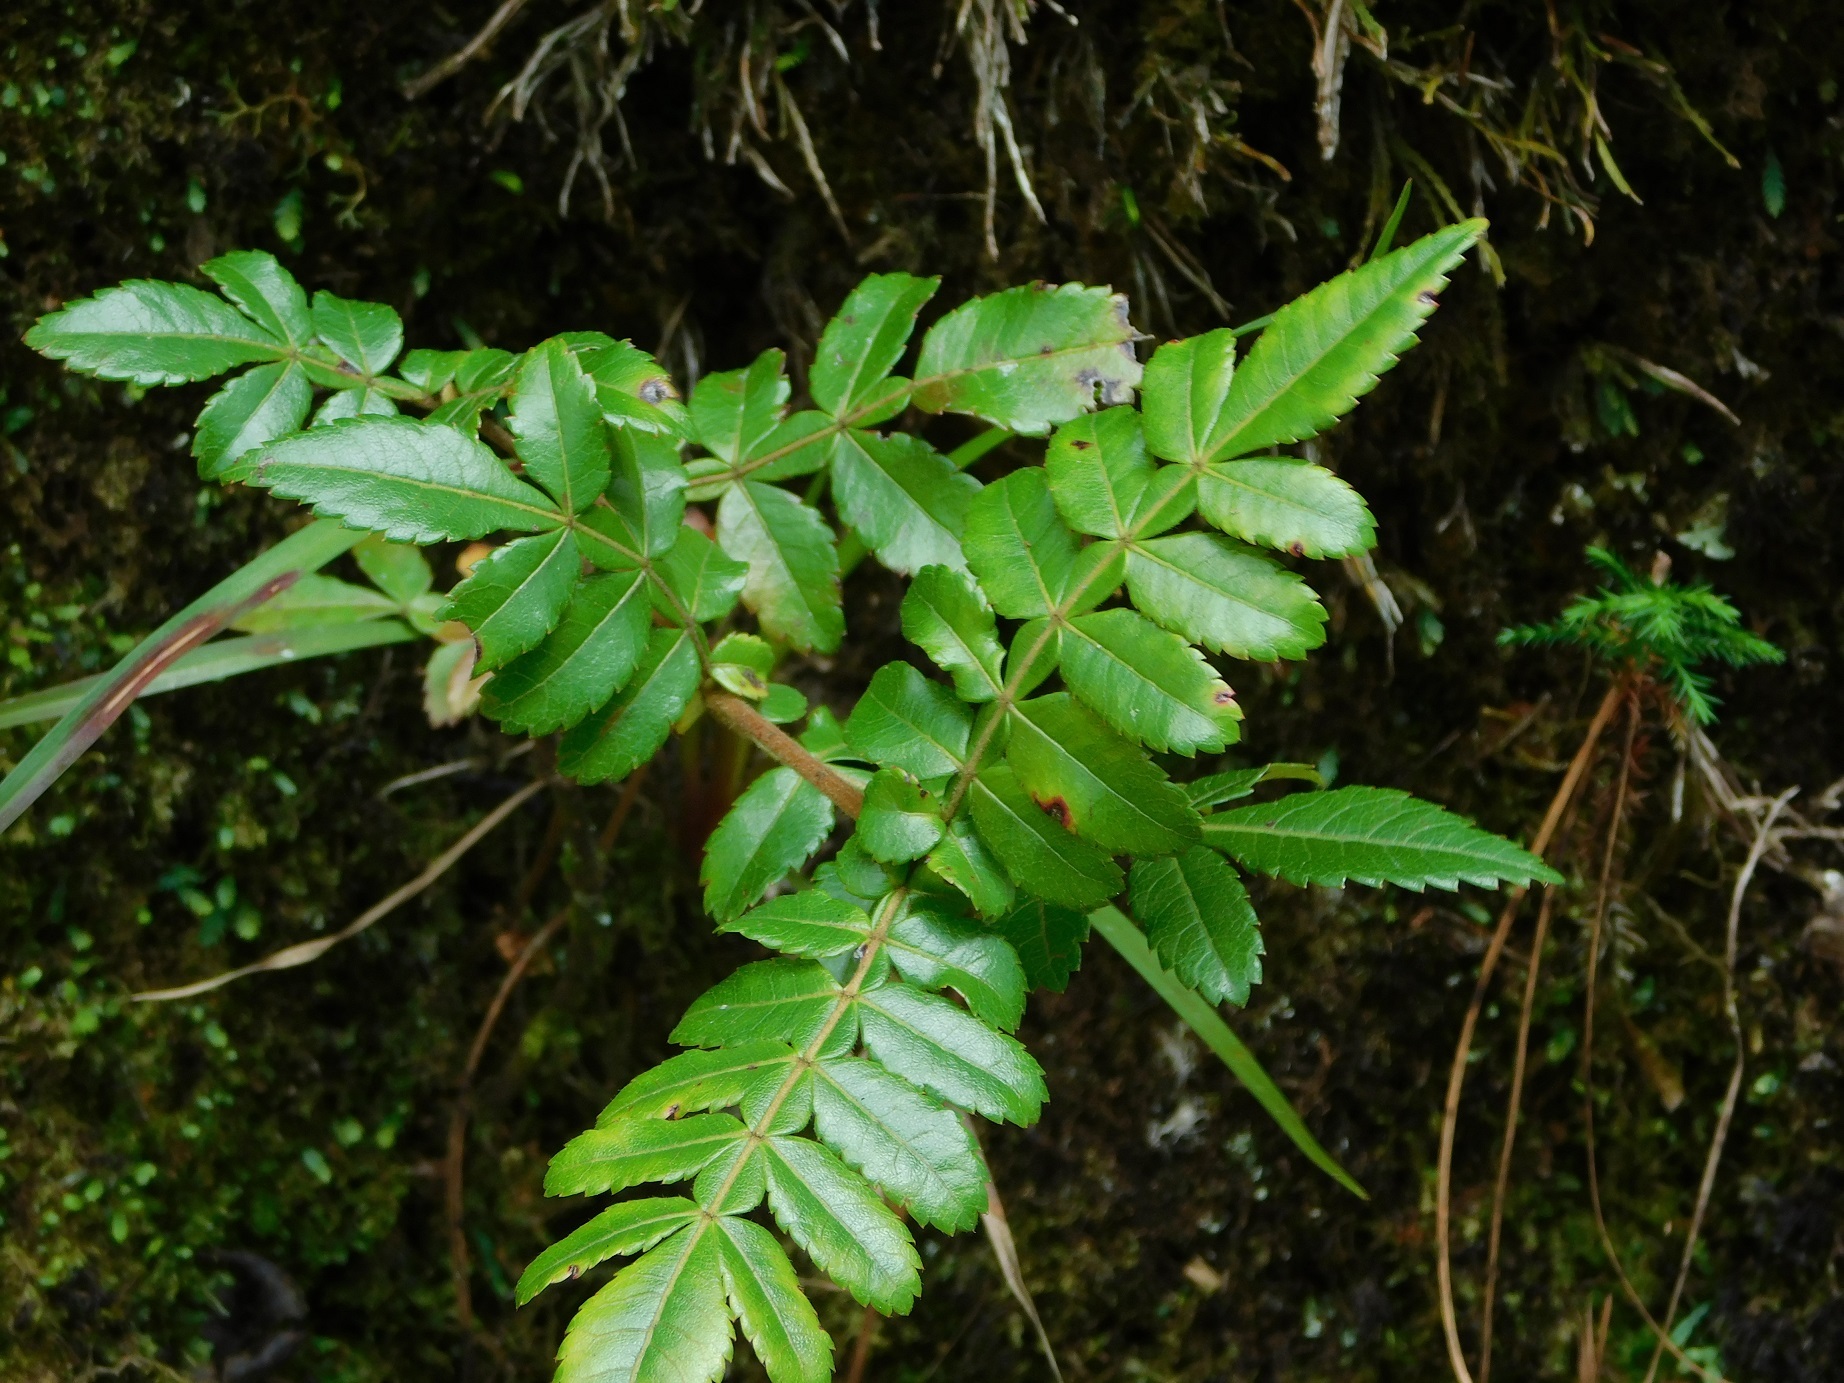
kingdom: Plantae
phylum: Tracheophyta
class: Magnoliopsida
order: Oxalidales
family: Cunoniaceae
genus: Weinmannia
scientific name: Weinmannia pubescens
